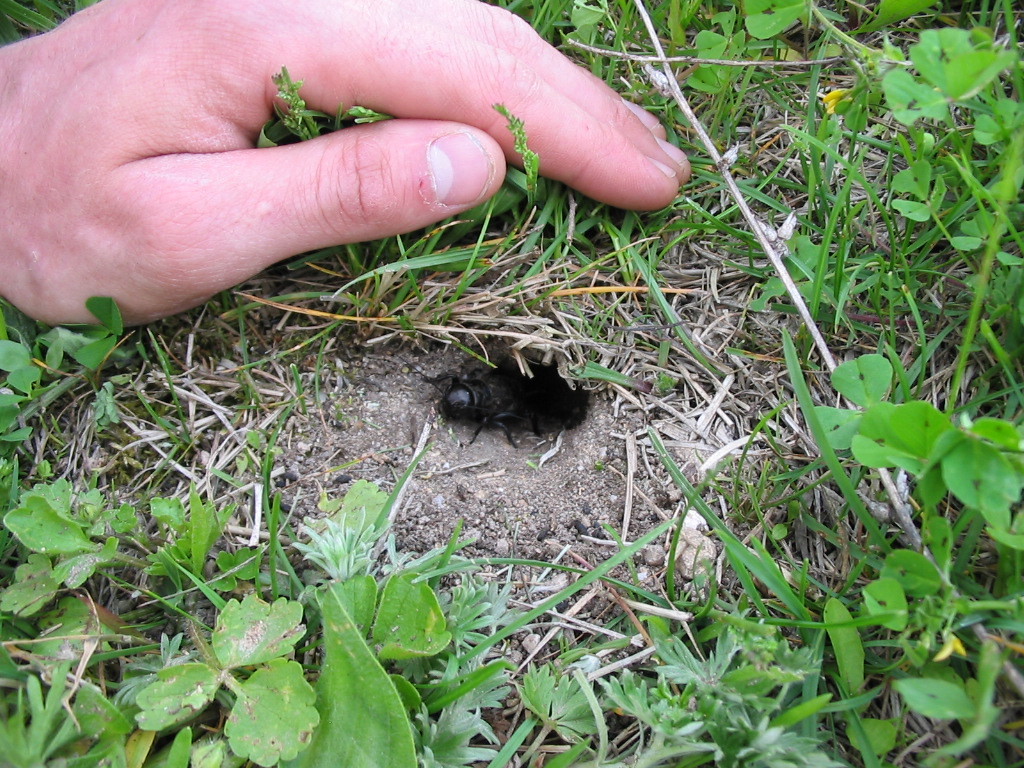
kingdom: Animalia
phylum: Arthropoda
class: Insecta
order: Orthoptera
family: Gryllidae
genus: Gryllus
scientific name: Gryllus campestris
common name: Field cricket
